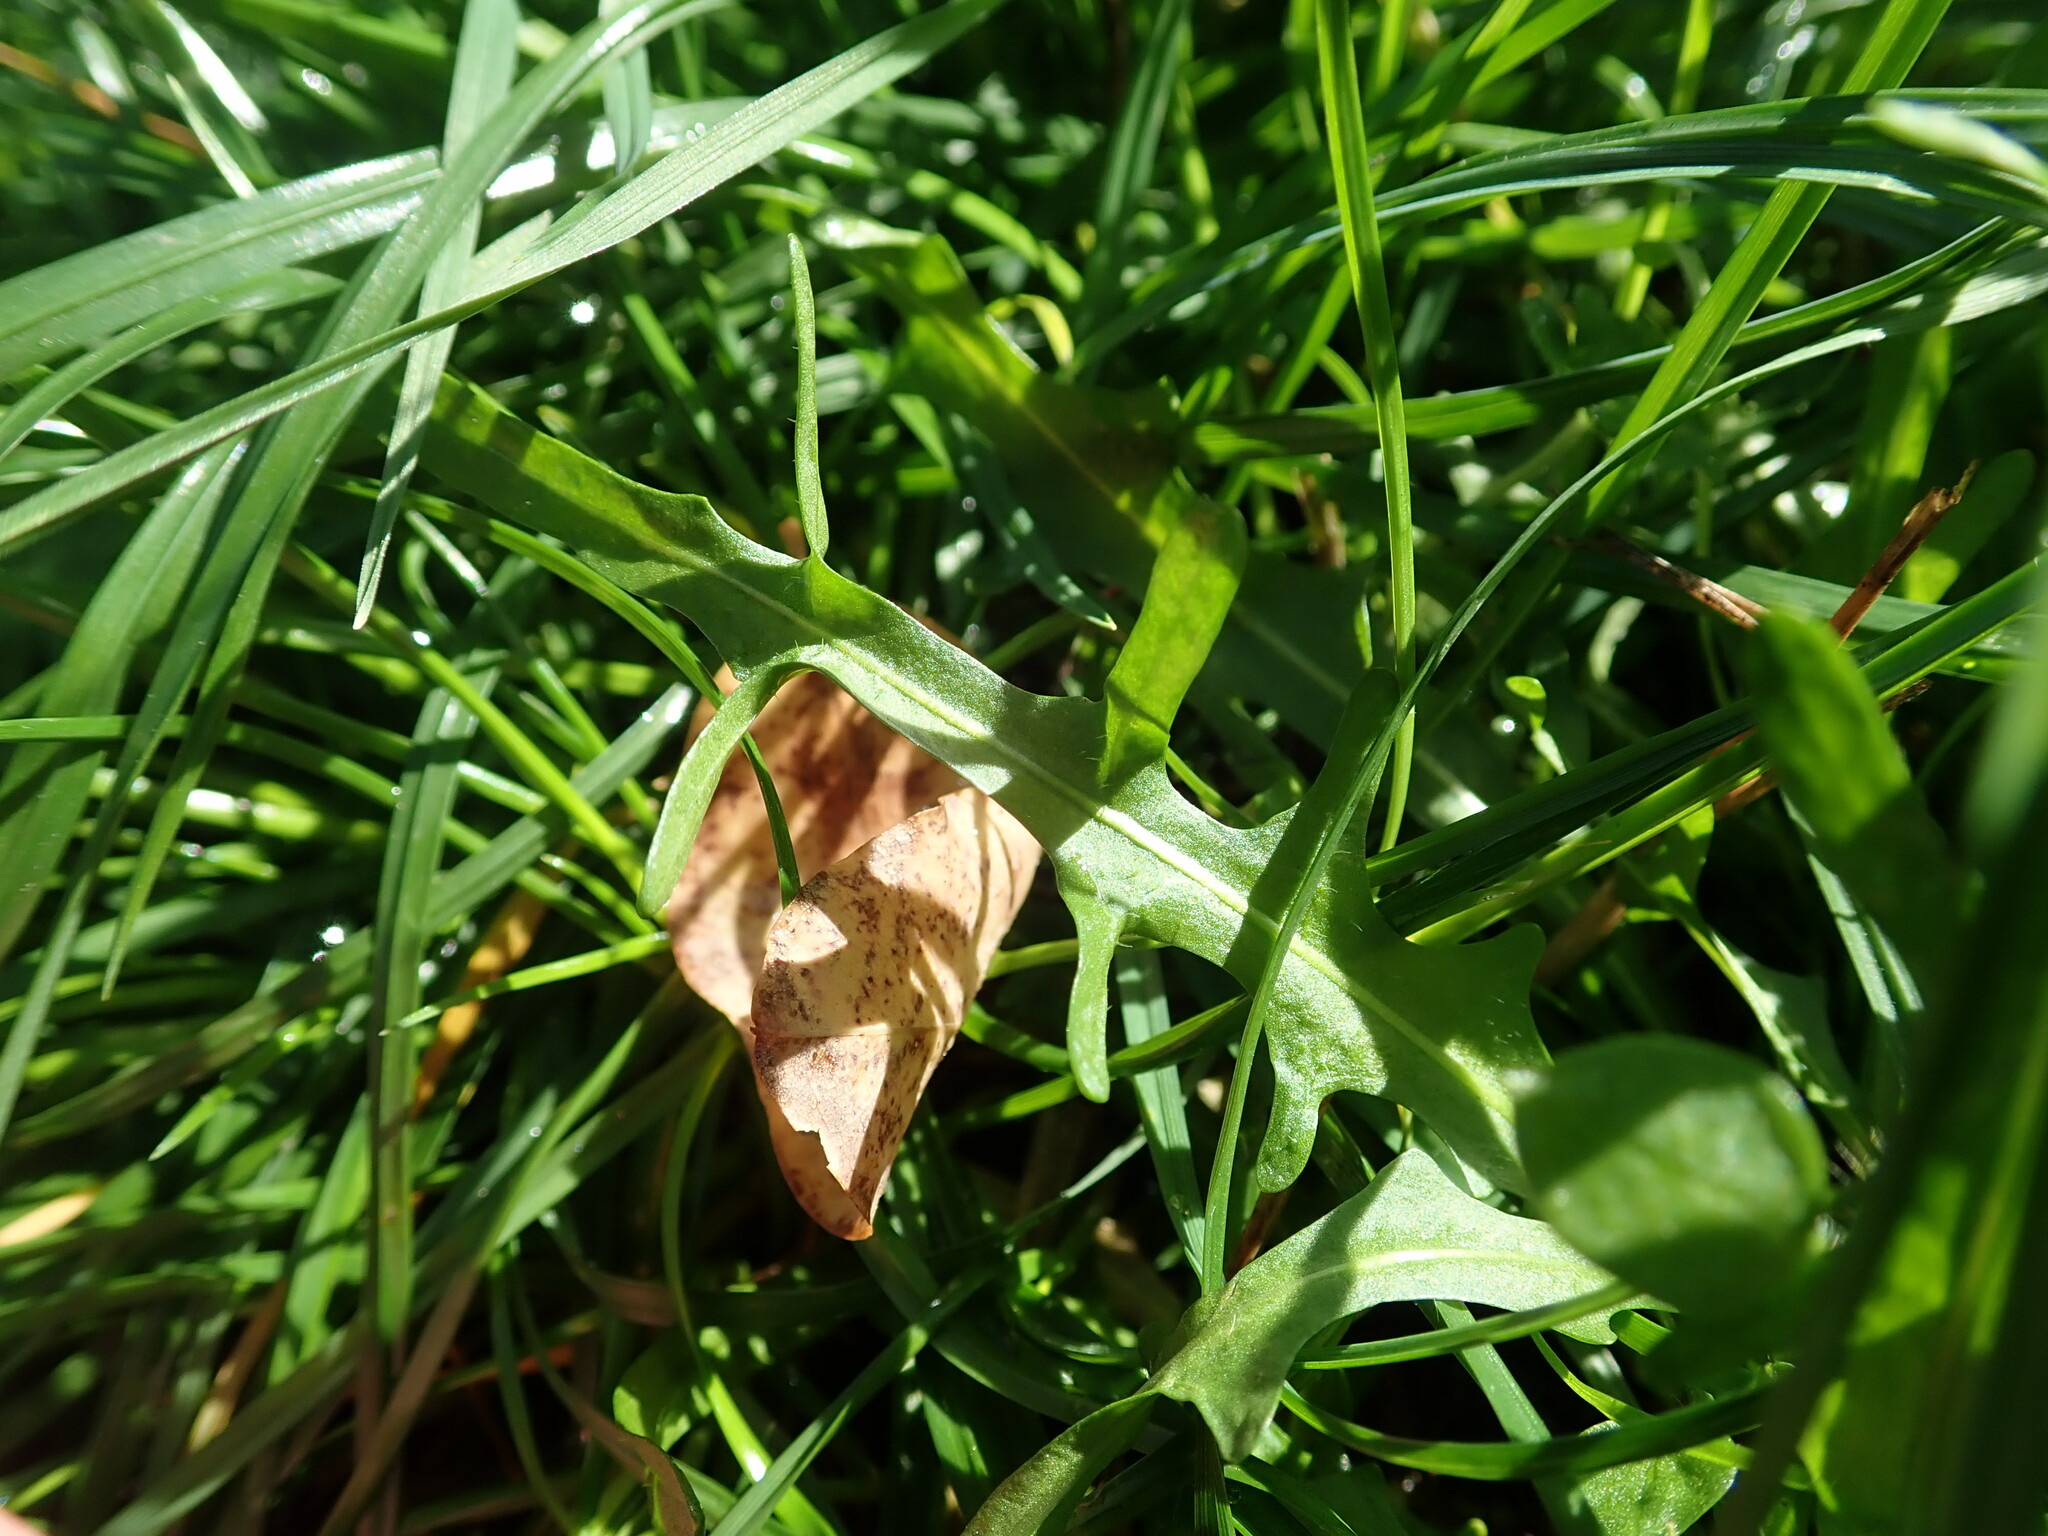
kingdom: Plantae
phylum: Tracheophyta
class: Magnoliopsida
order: Asterales
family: Asteraceae
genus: Scorzoneroides
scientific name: Scorzoneroides autumnalis
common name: Autumn hawkbit
